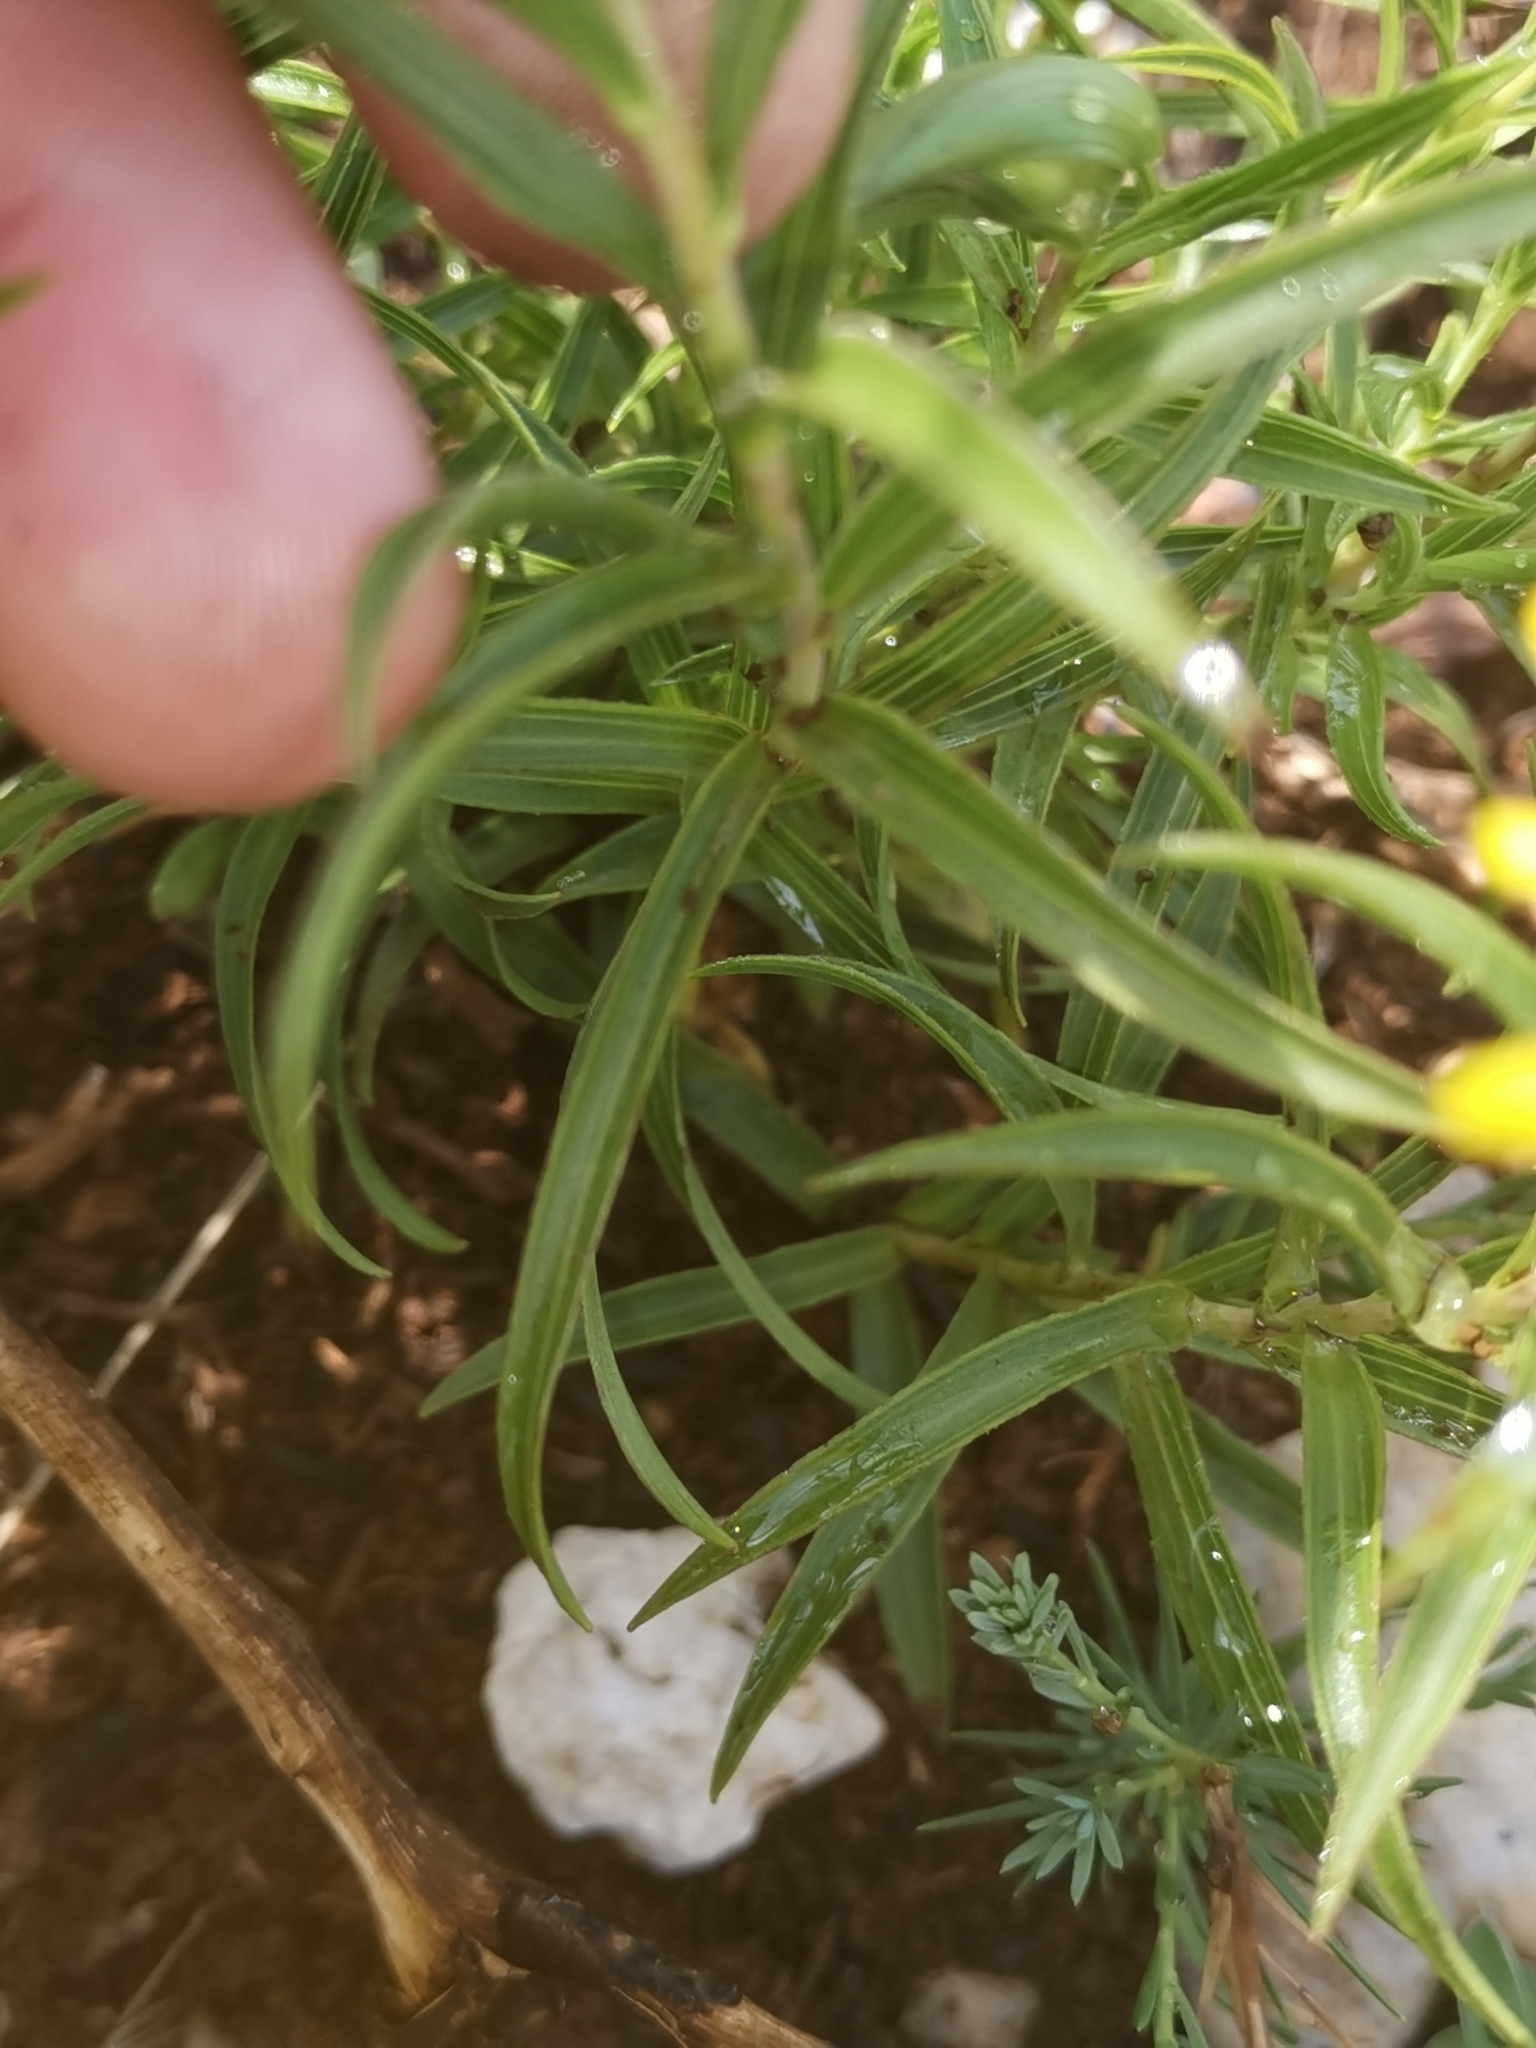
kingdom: Plantae
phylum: Tracheophyta
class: Magnoliopsida
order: Asterales
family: Asteraceae
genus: Pentanema
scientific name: Pentanema ensifolium
